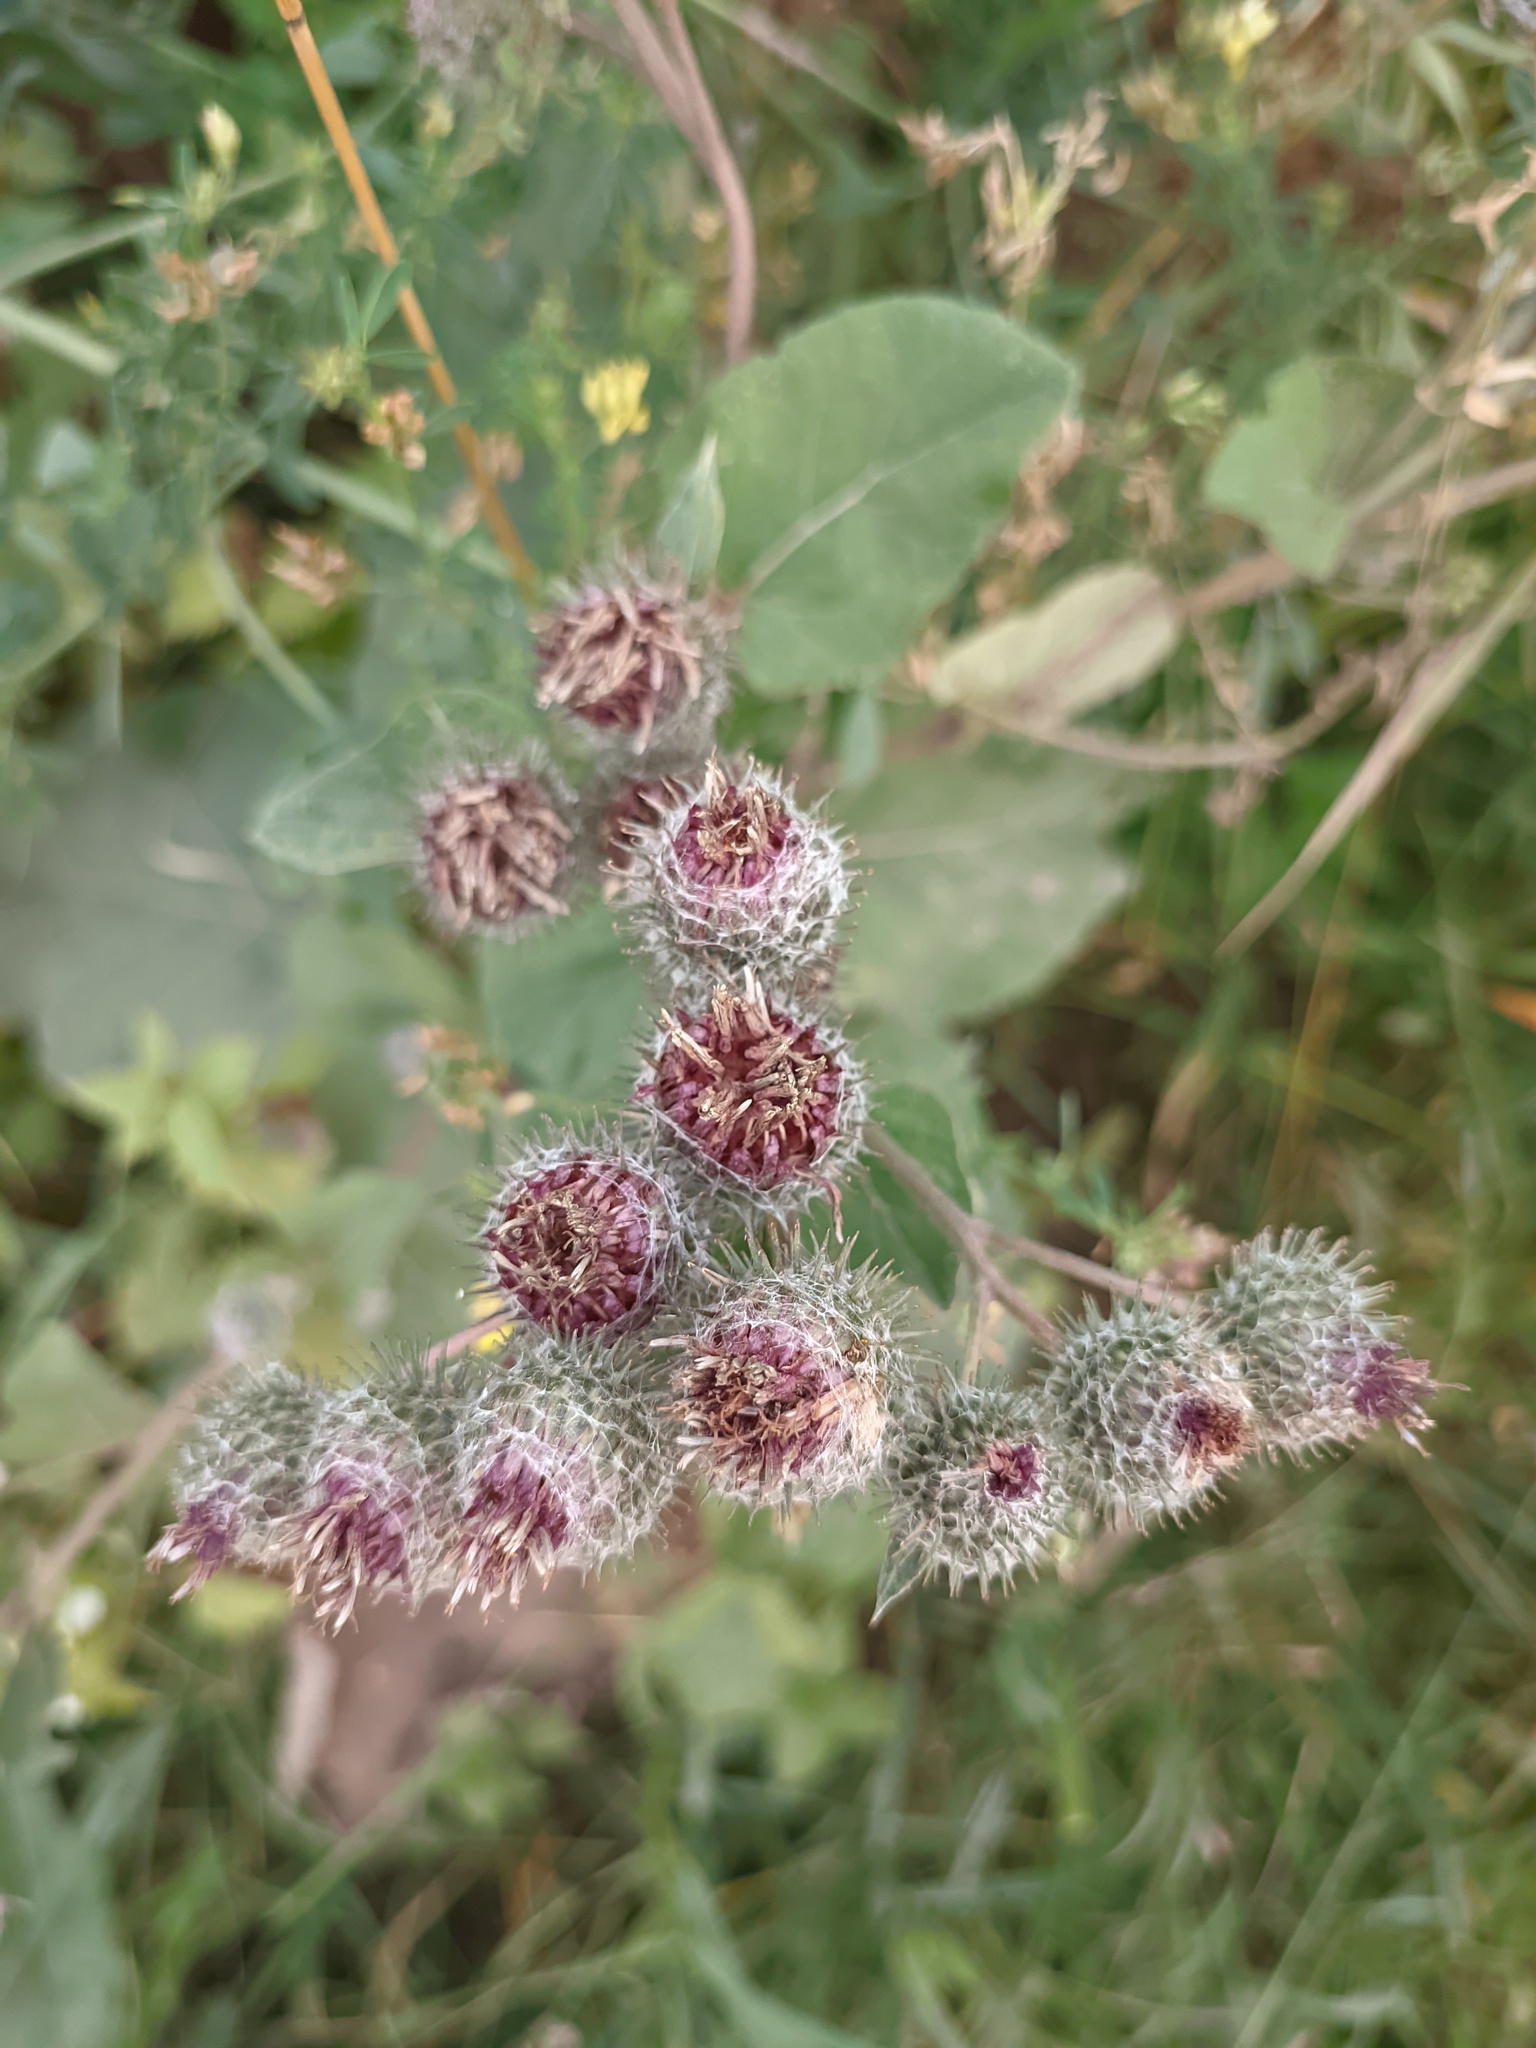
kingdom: Plantae
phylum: Tracheophyta
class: Magnoliopsida
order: Asterales
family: Asteraceae
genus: Arctium
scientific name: Arctium tomentosum
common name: Woolly burdock
